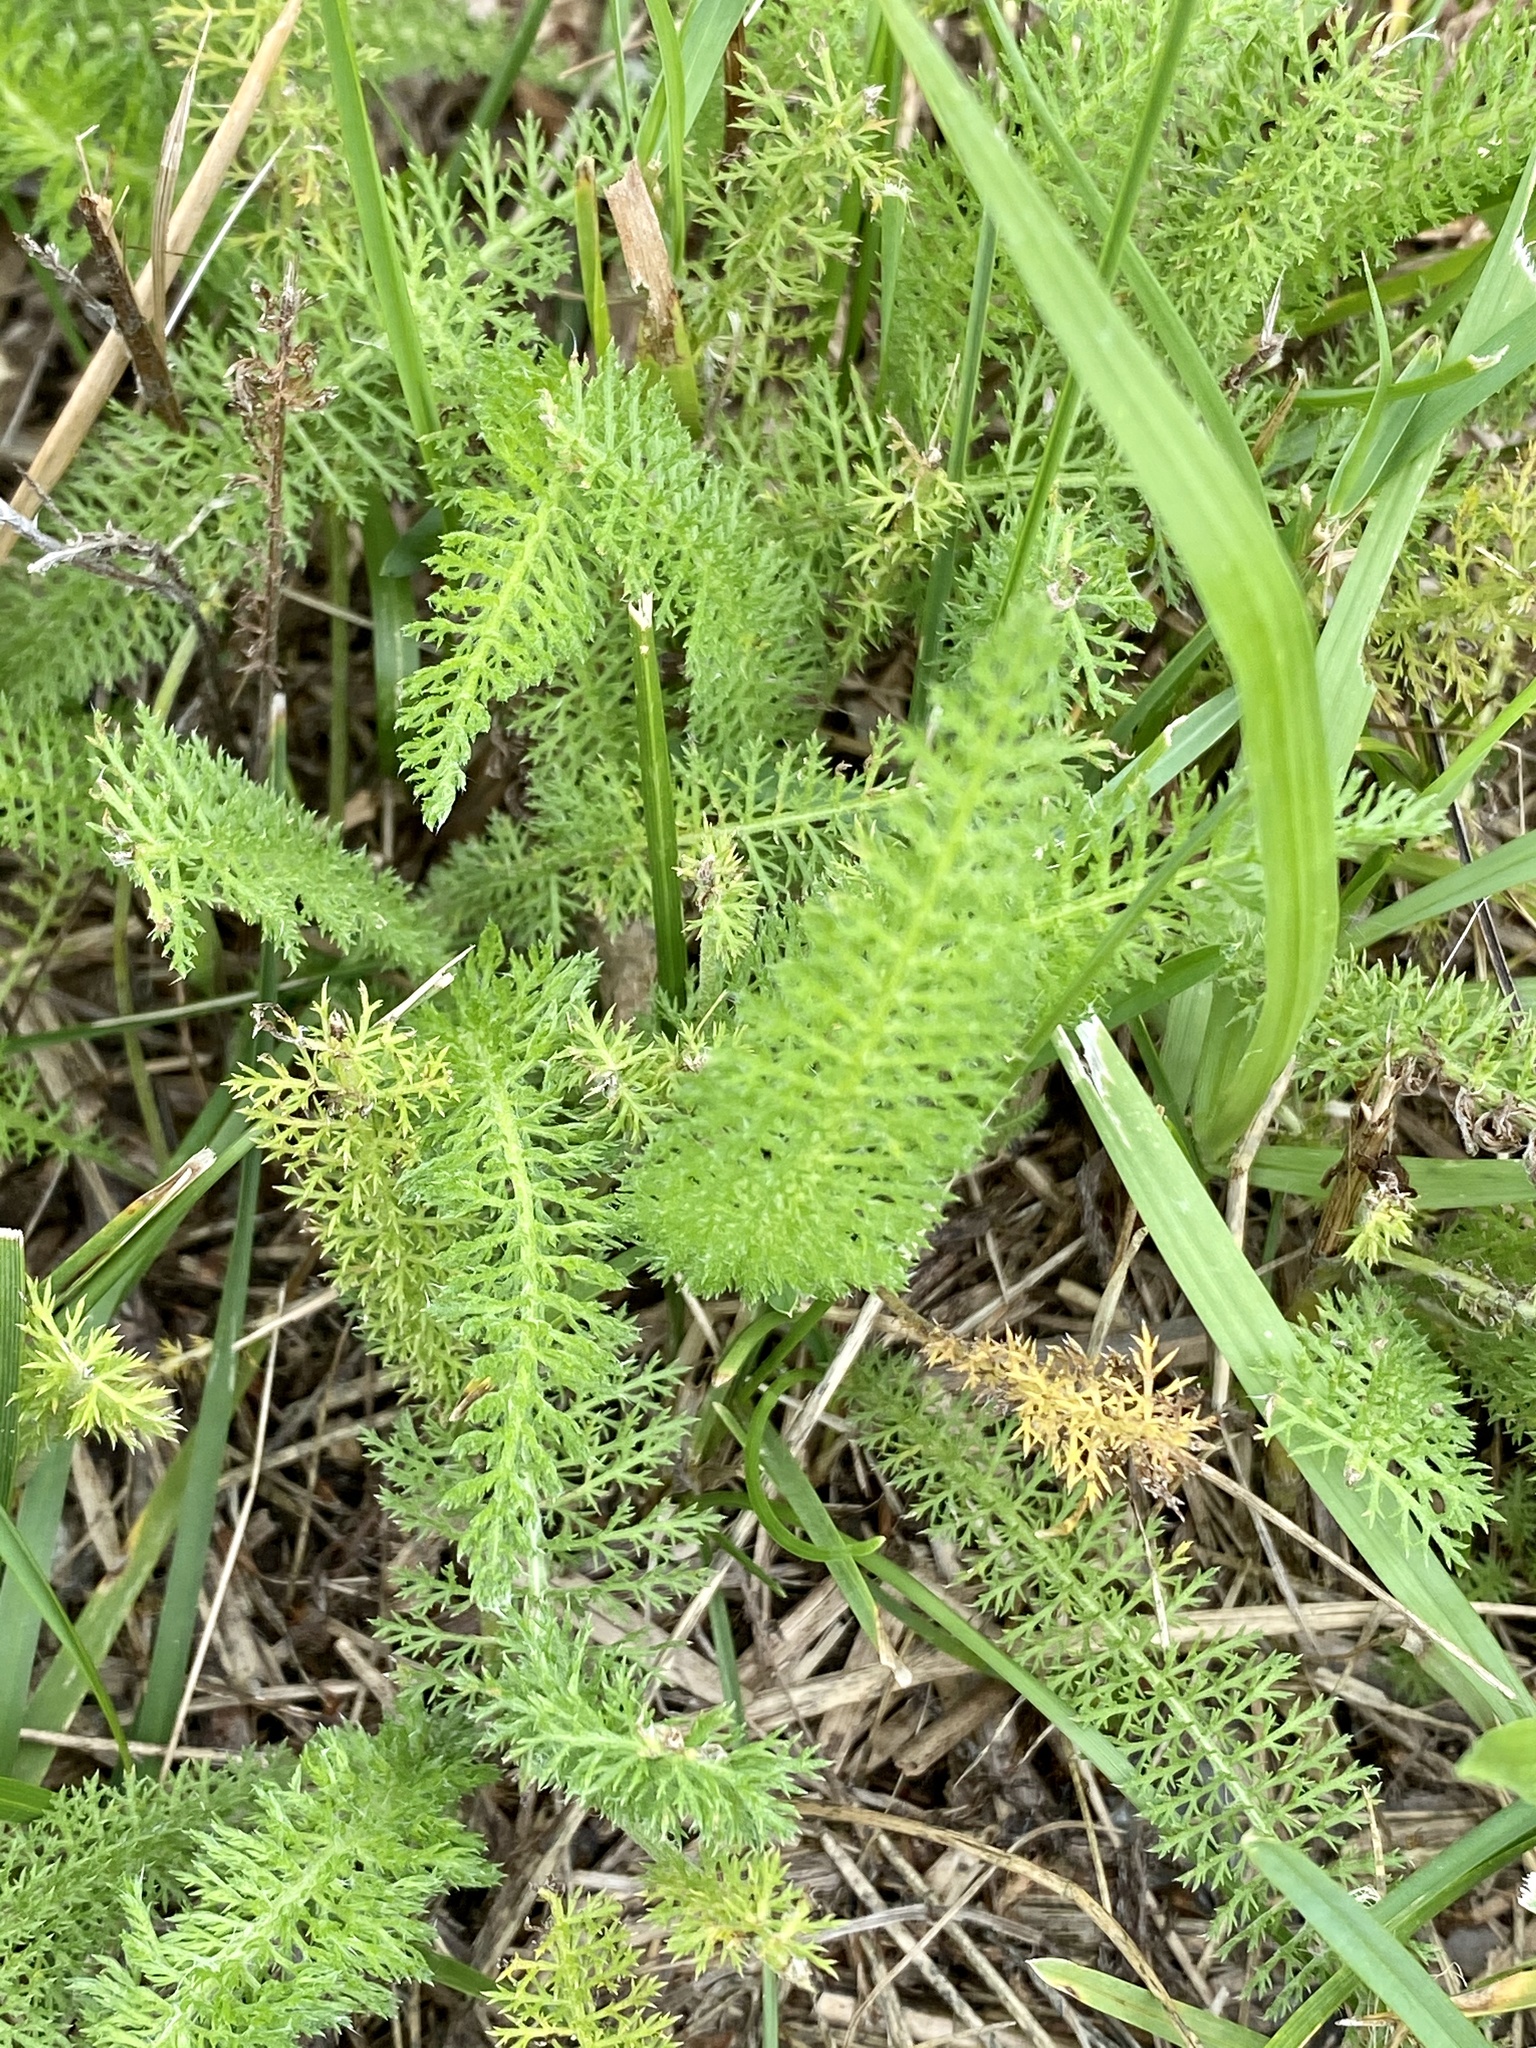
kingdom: Plantae
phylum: Tracheophyta
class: Magnoliopsida
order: Asterales
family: Asteraceae
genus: Achillea
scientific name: Achillea millefolium
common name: Yarrow
